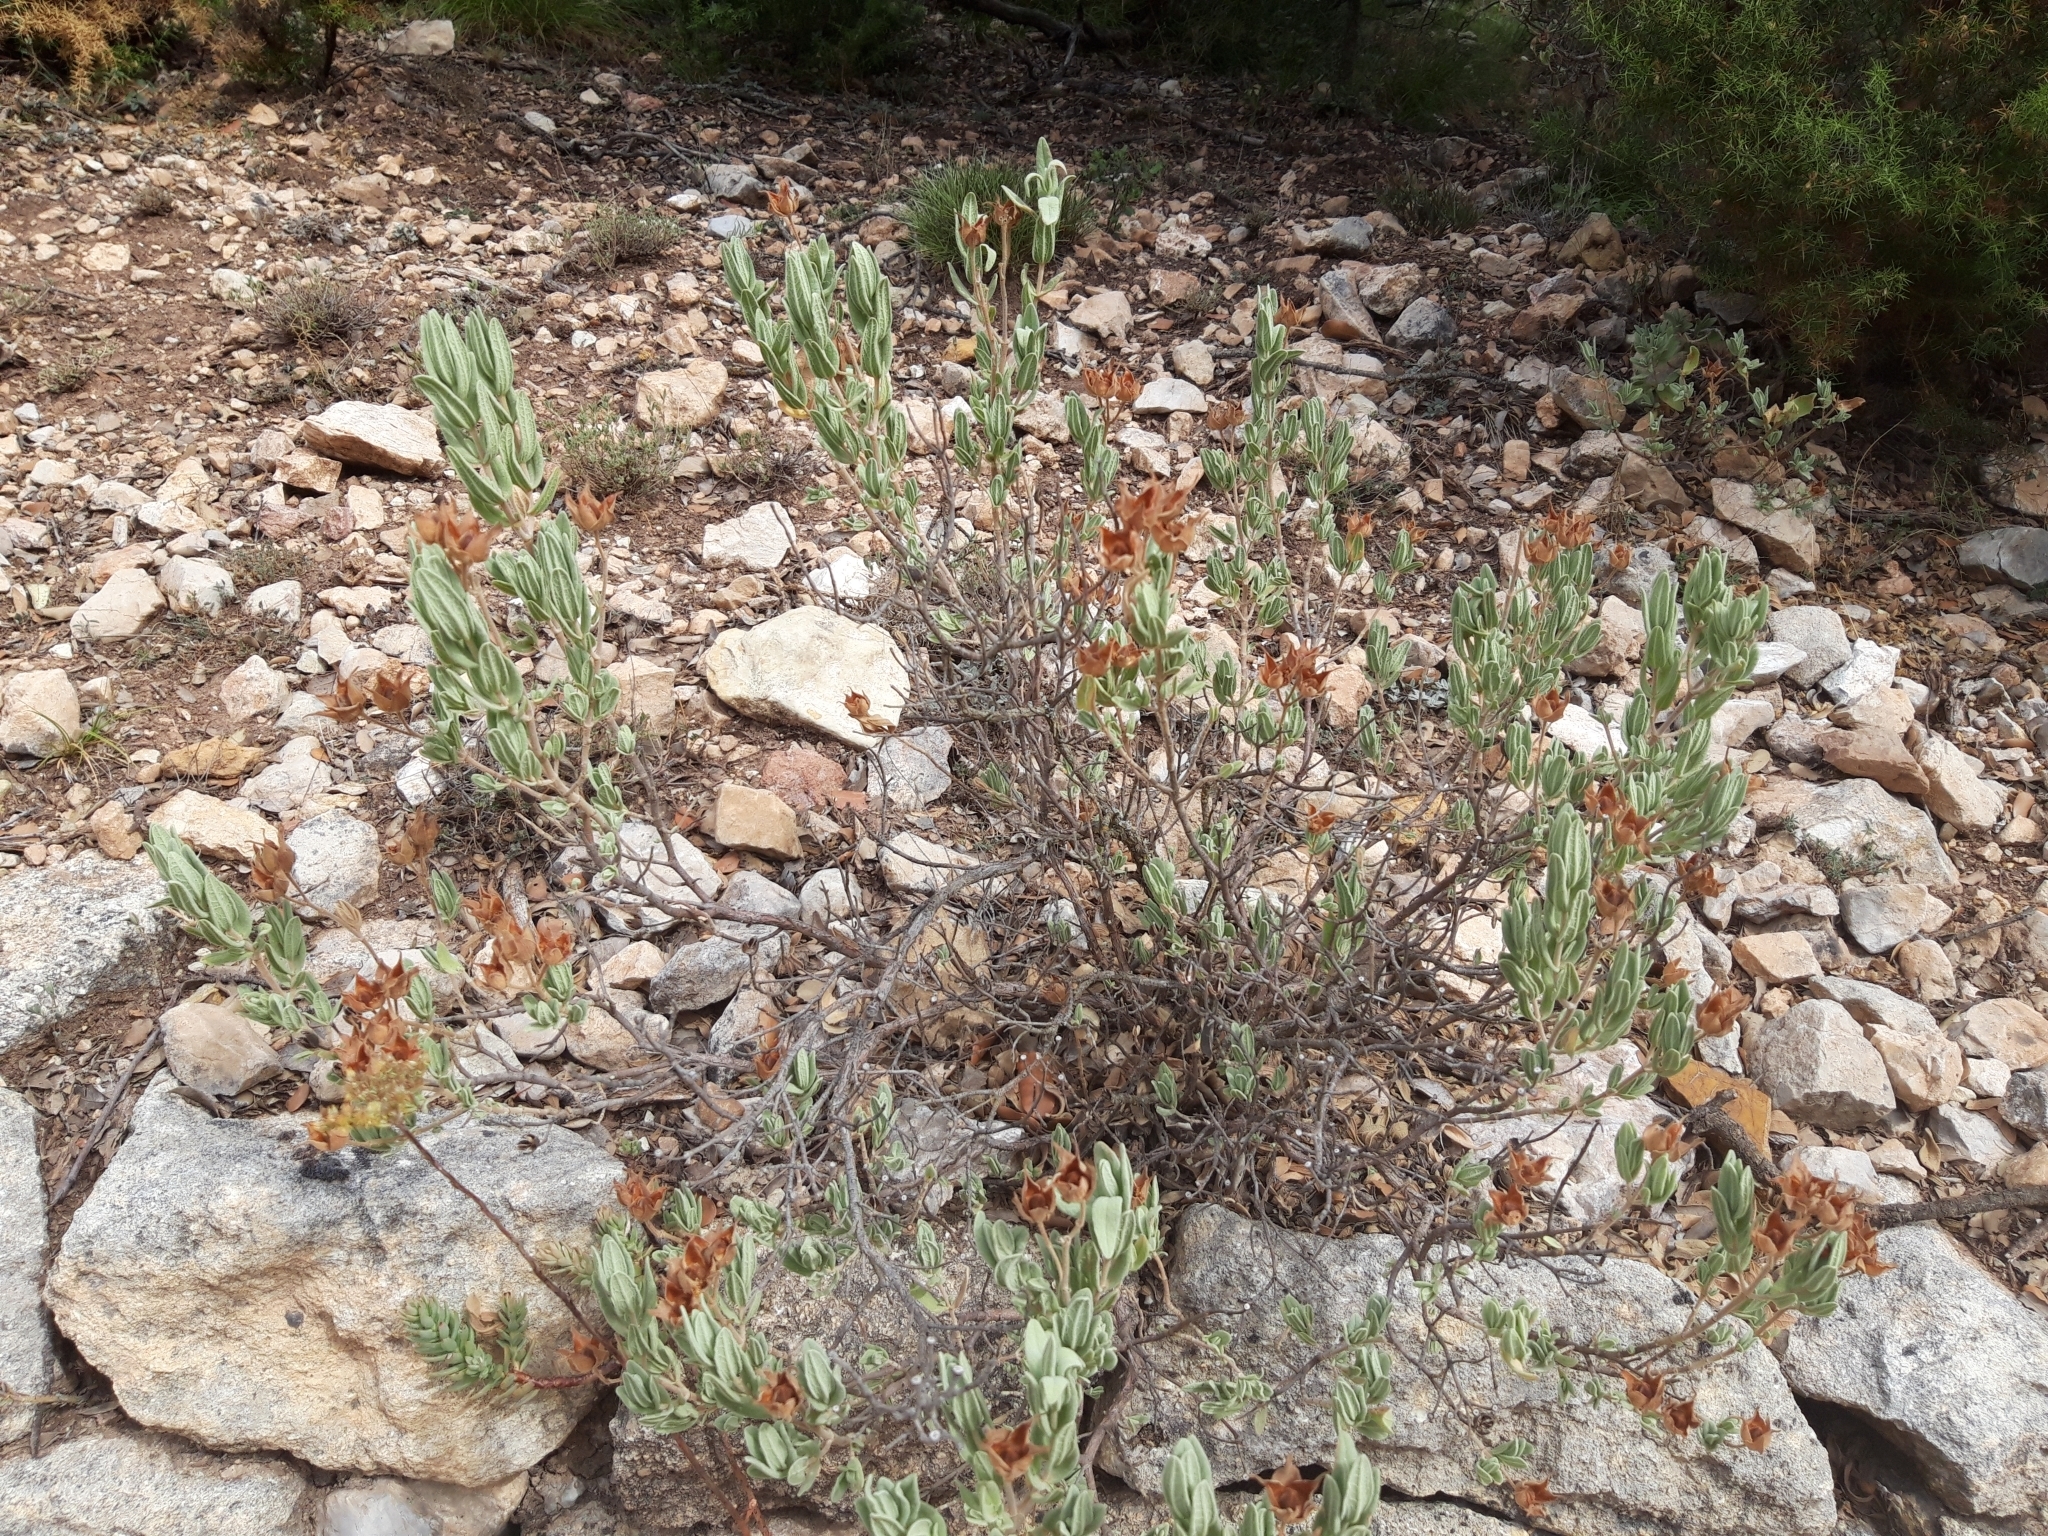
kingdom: Plantae
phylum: Tracheophyta
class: Magnoliopsida
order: Malvales
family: Cistaceae
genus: Cistus
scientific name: Cistus albidus
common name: White-leaf rock-rose
